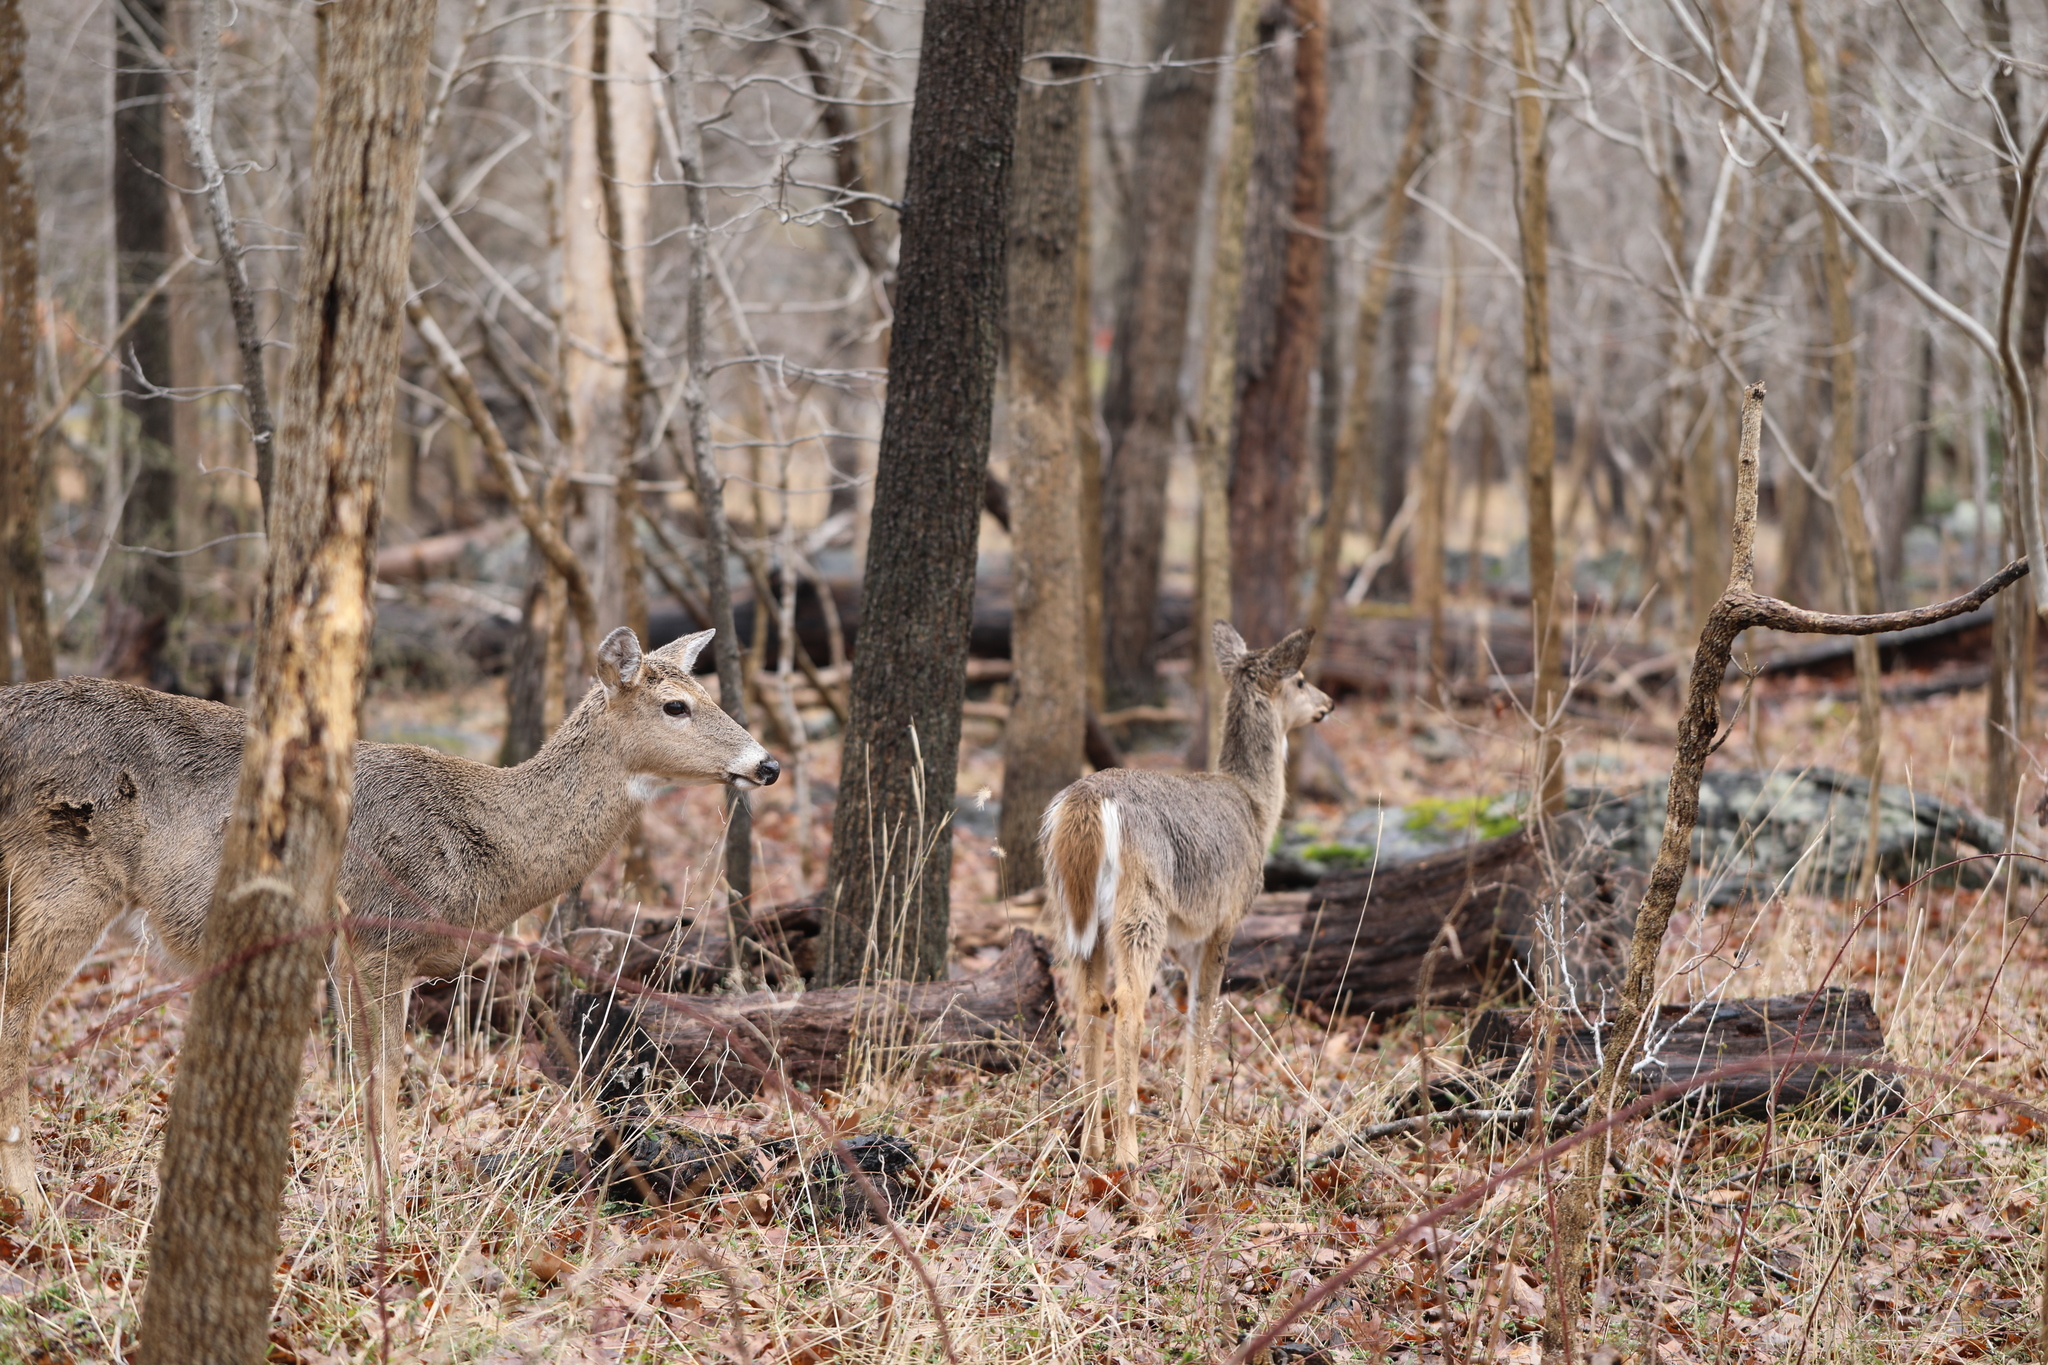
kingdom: Animalia
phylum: Chordata
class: Mammalia
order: Artiodactyla
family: Cervidae
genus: Odocoileus
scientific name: Odocoileus virginianus
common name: White-tailed deer
